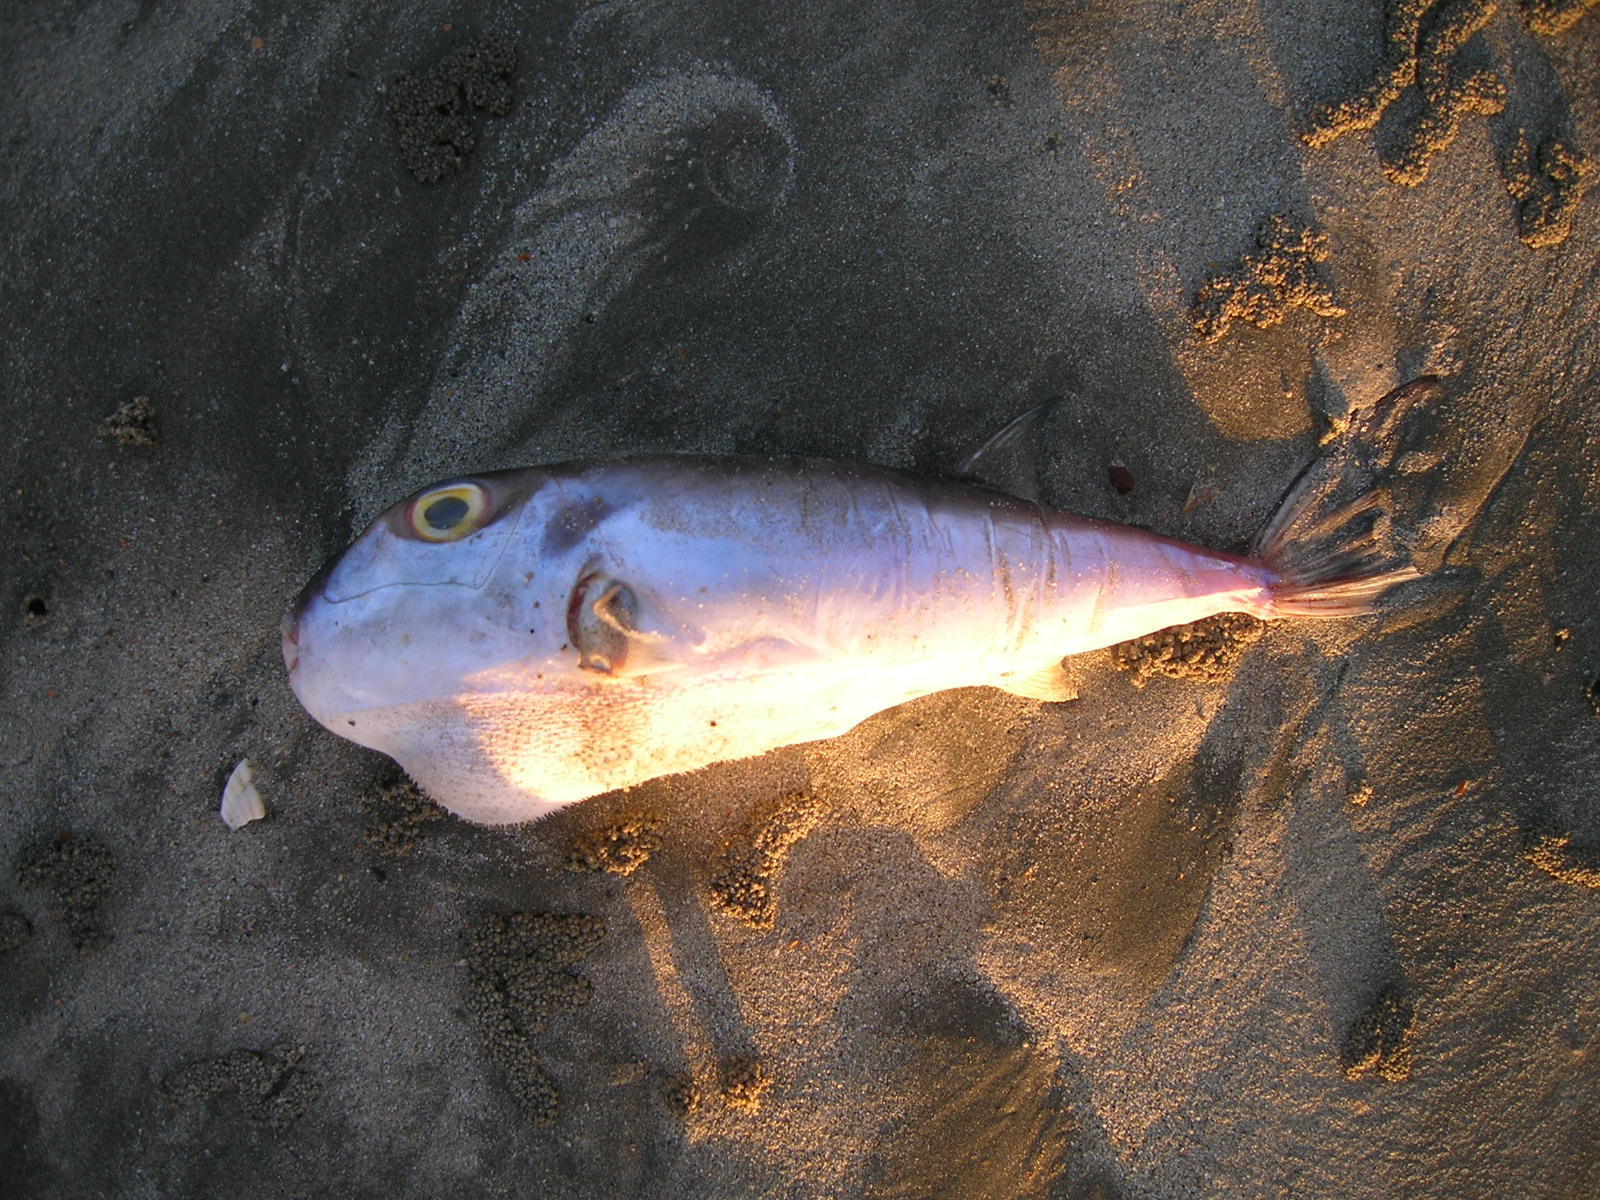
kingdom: Animalia
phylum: Chordata
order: Tetraodontiformes
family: Tetraodontidae
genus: Lagocephalus
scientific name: Lagocephalus spadiceus
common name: Half-smooth golden pufferfish
